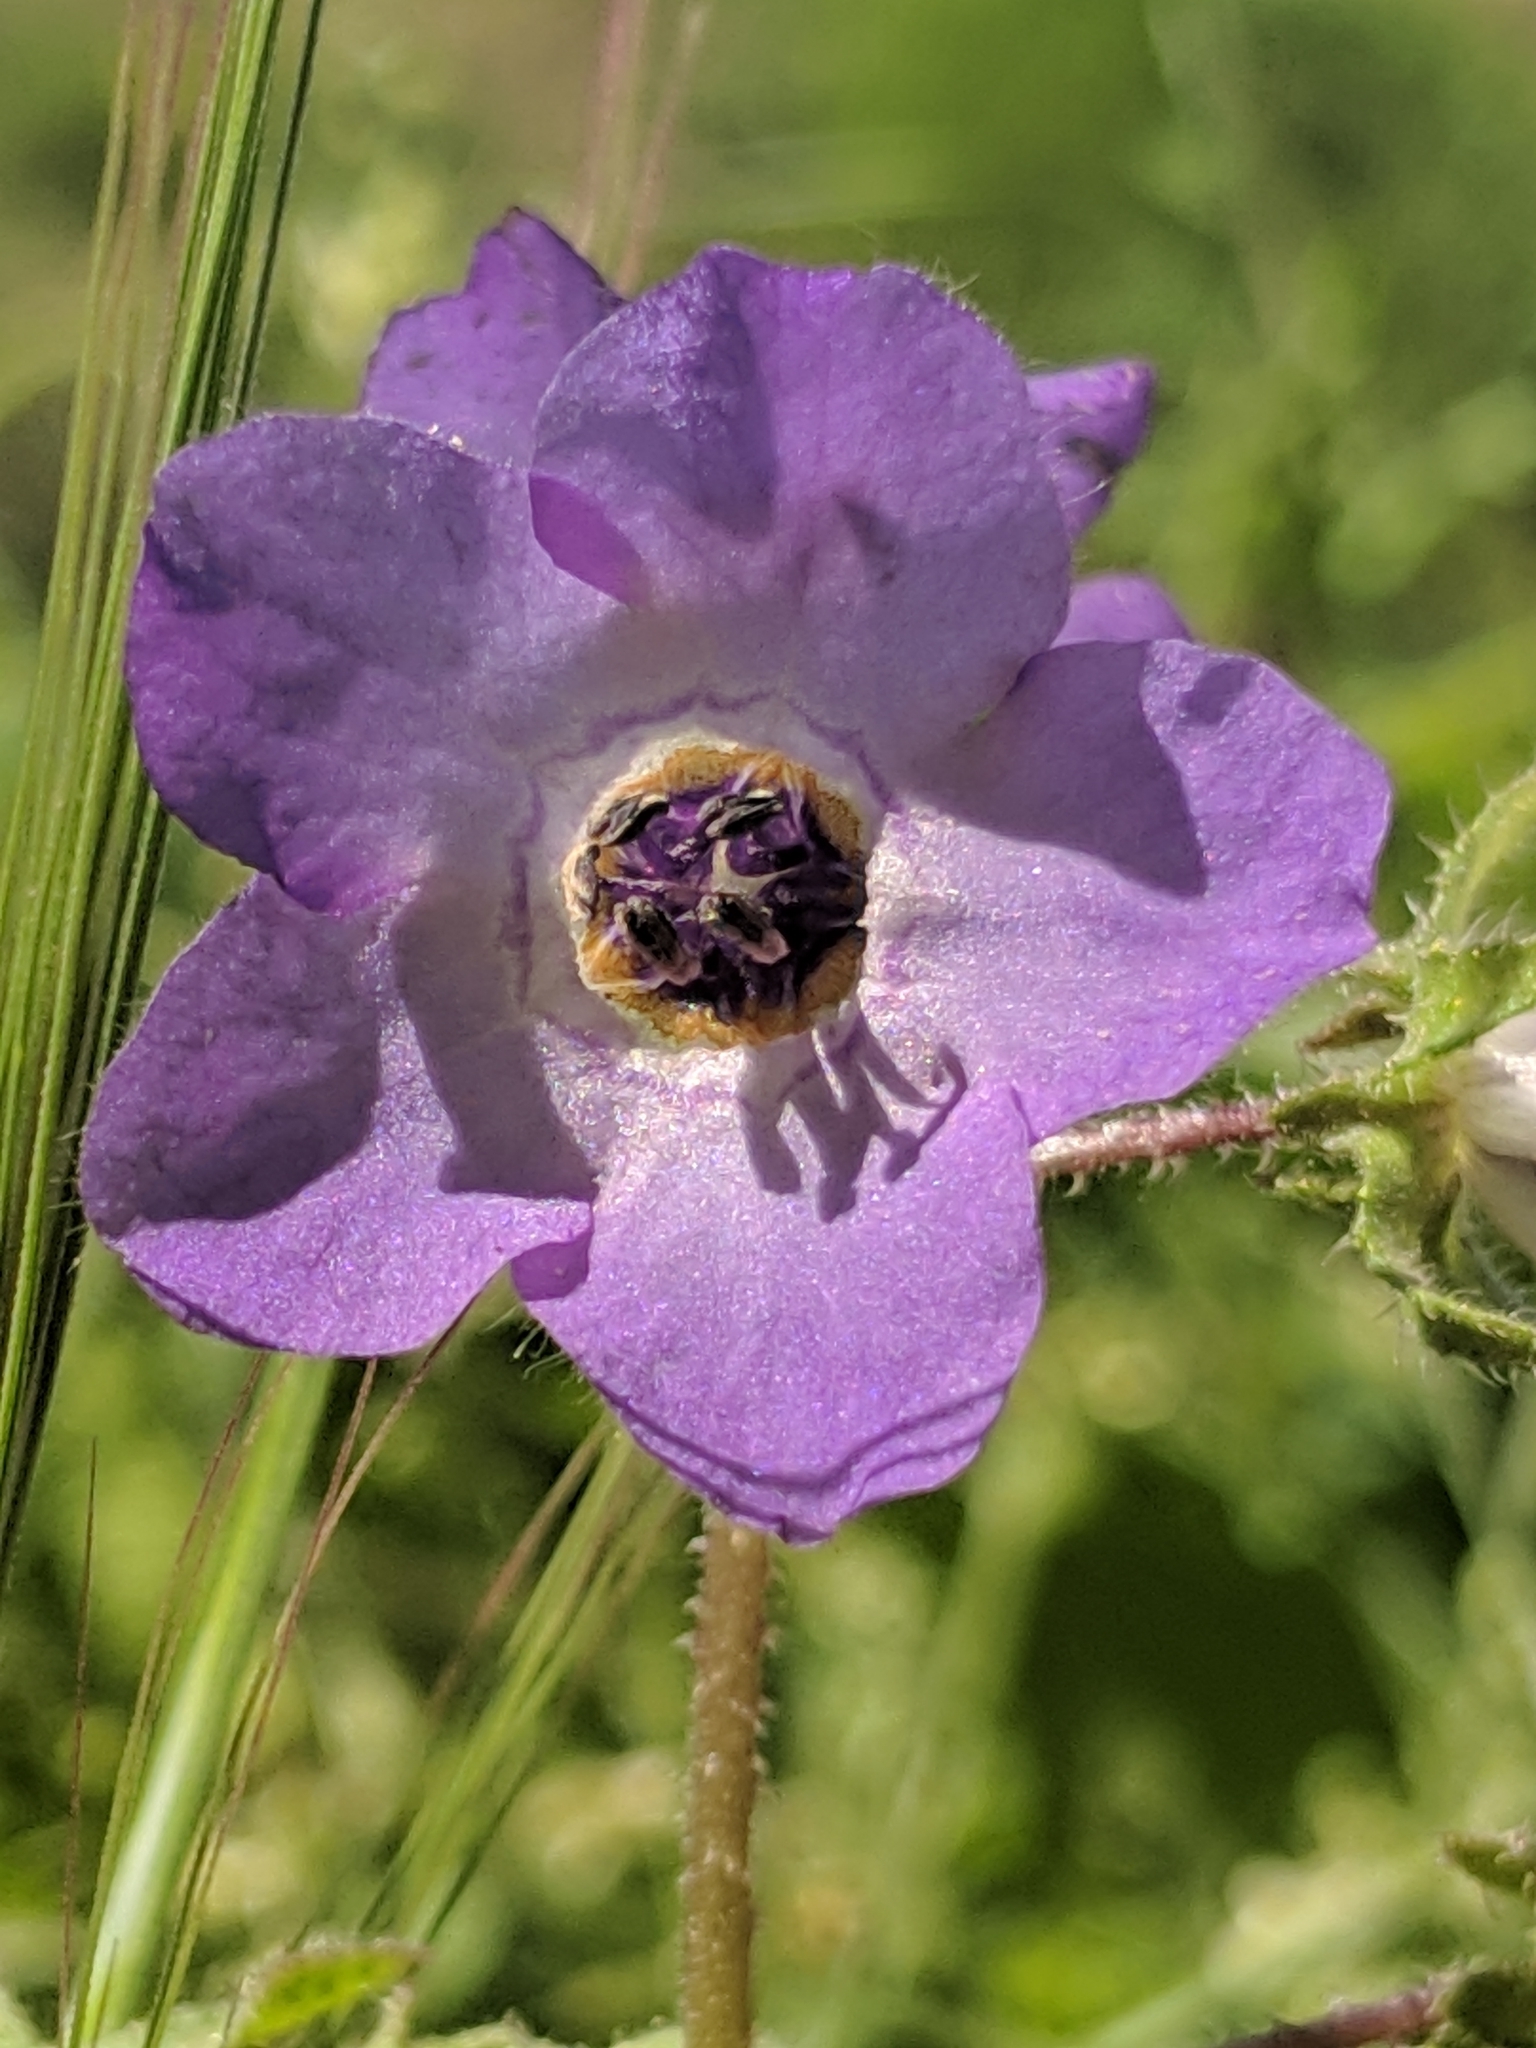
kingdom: Plantae
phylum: Tracheophyta
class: Magnoliopsida
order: Boraginales
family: Hydrophyllaceae
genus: Pholistoma
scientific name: Pholistoma auritum
